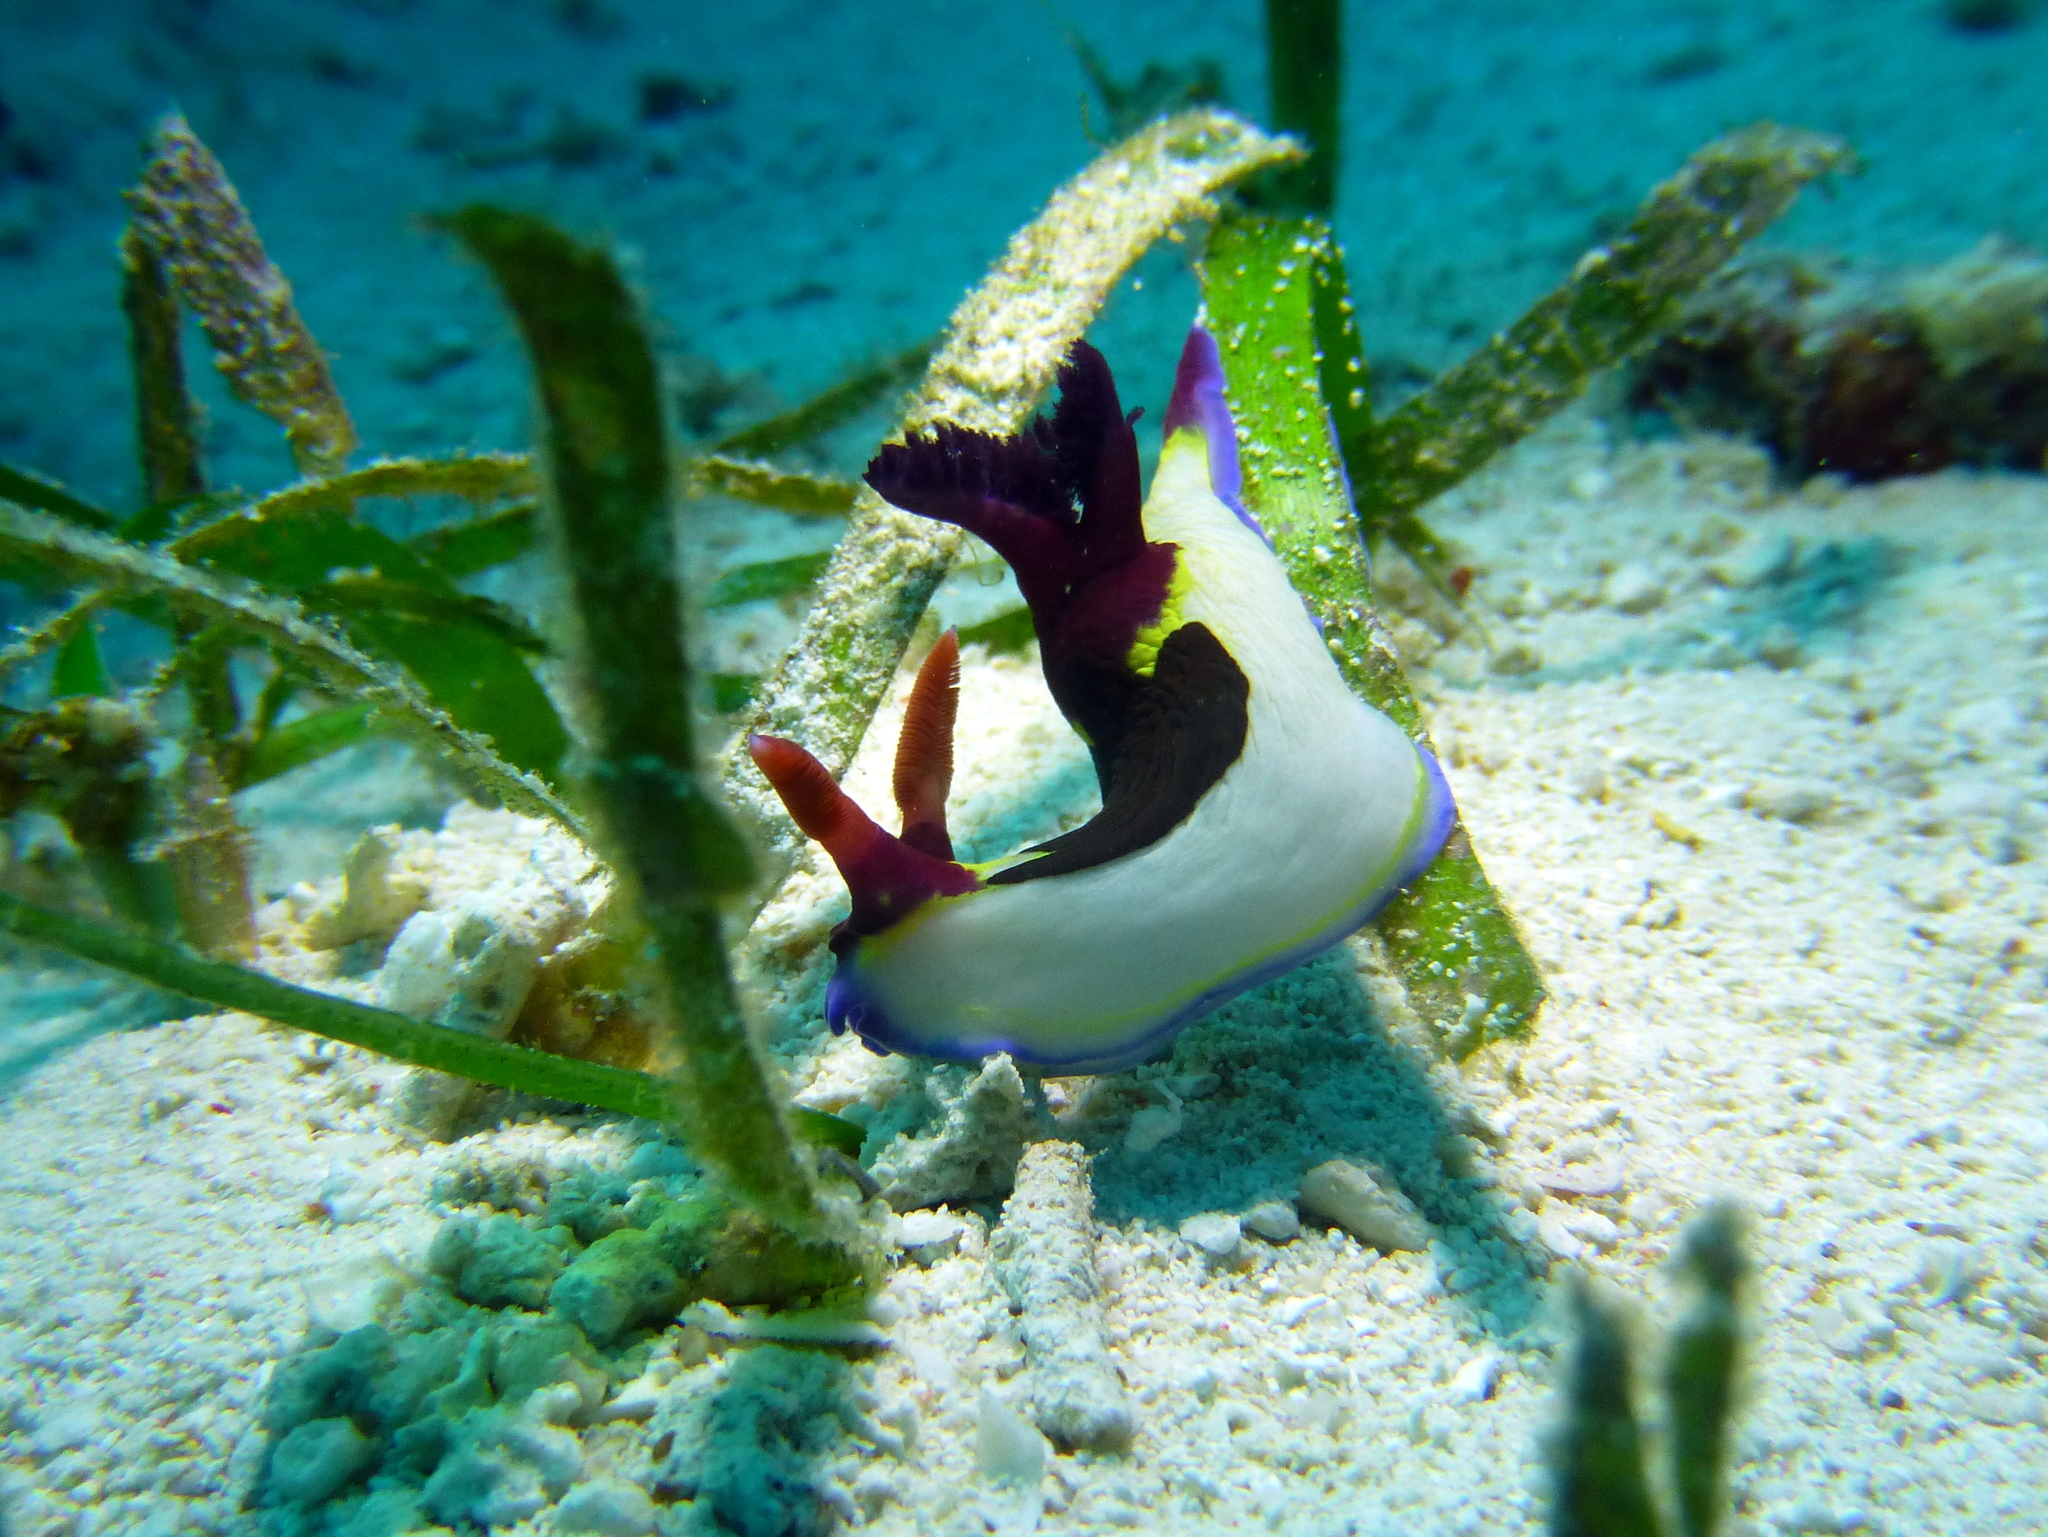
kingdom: Animalia
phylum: Mollusca
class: Gastropoda
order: Nudibranchia
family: Polyceridae
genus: Nembrotha
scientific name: Nembrotha chamberlaini
